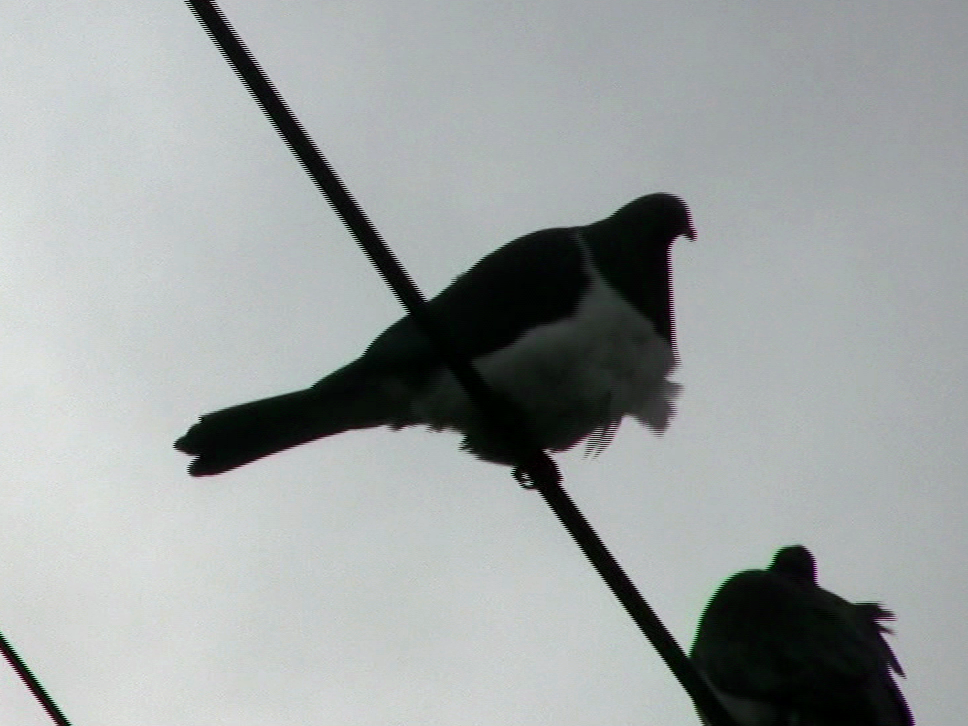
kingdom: Animalia
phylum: Chordata
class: Aves
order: Columbiformes
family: Columbidae
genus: Hemiphaga
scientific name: Hemiphaga novaeseelandiae
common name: New zealand pigeon
